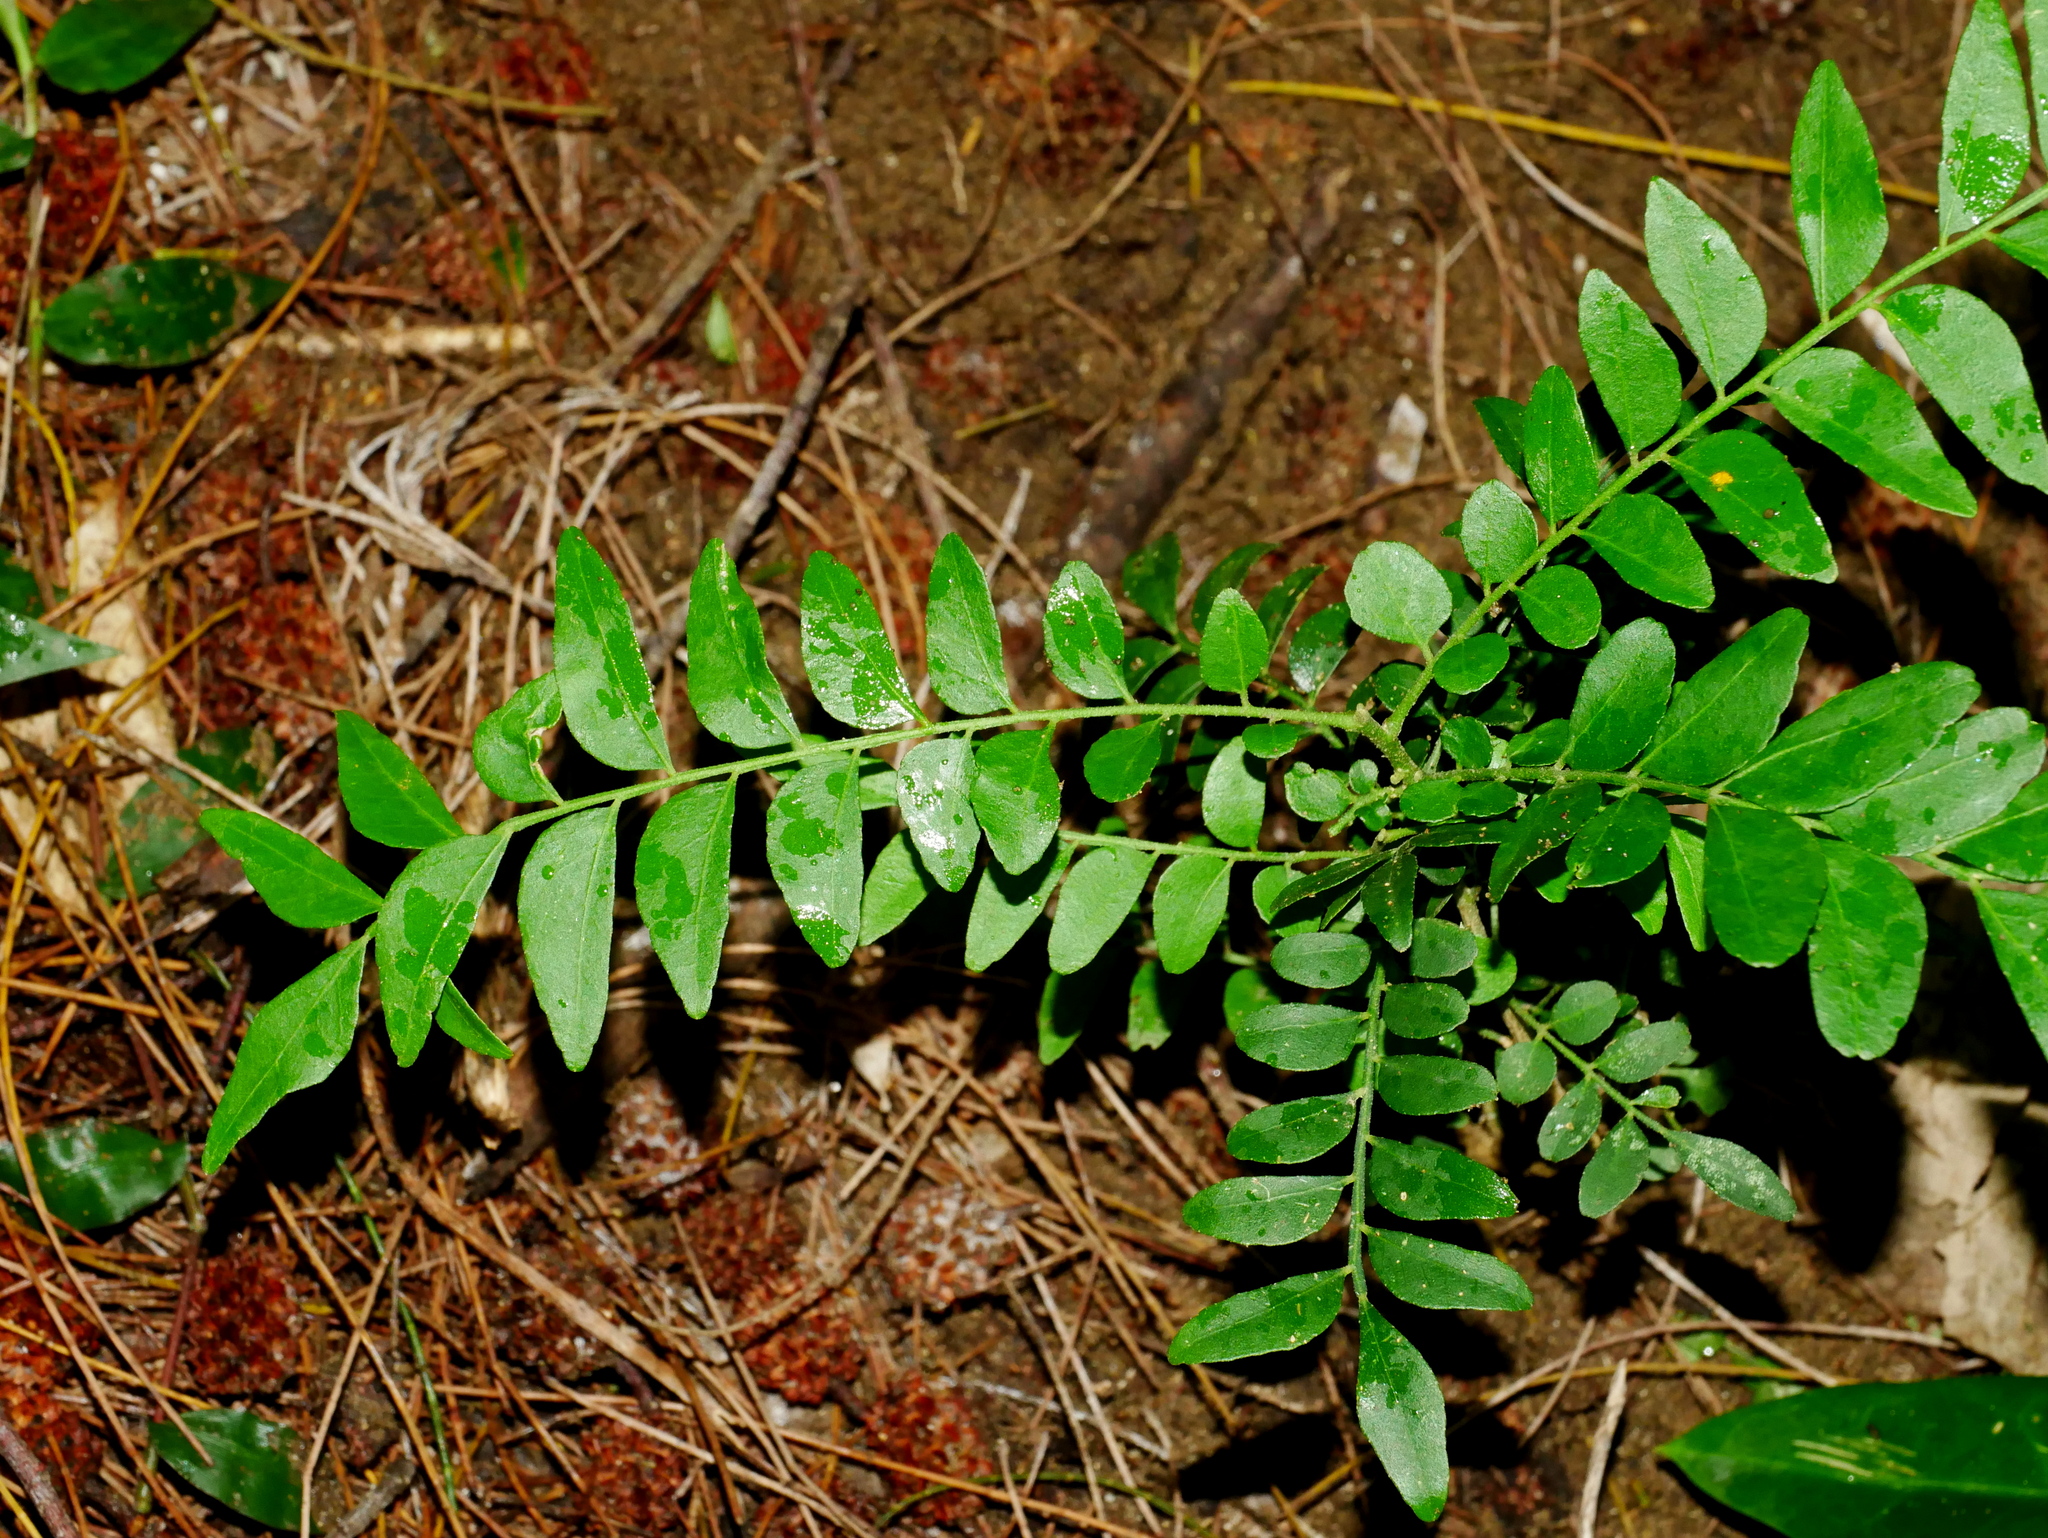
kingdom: Plantae
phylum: Tracheophyta
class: Magnoliopsida
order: Sapindales
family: Rutaceae
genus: Clausena
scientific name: Clausena excavata
